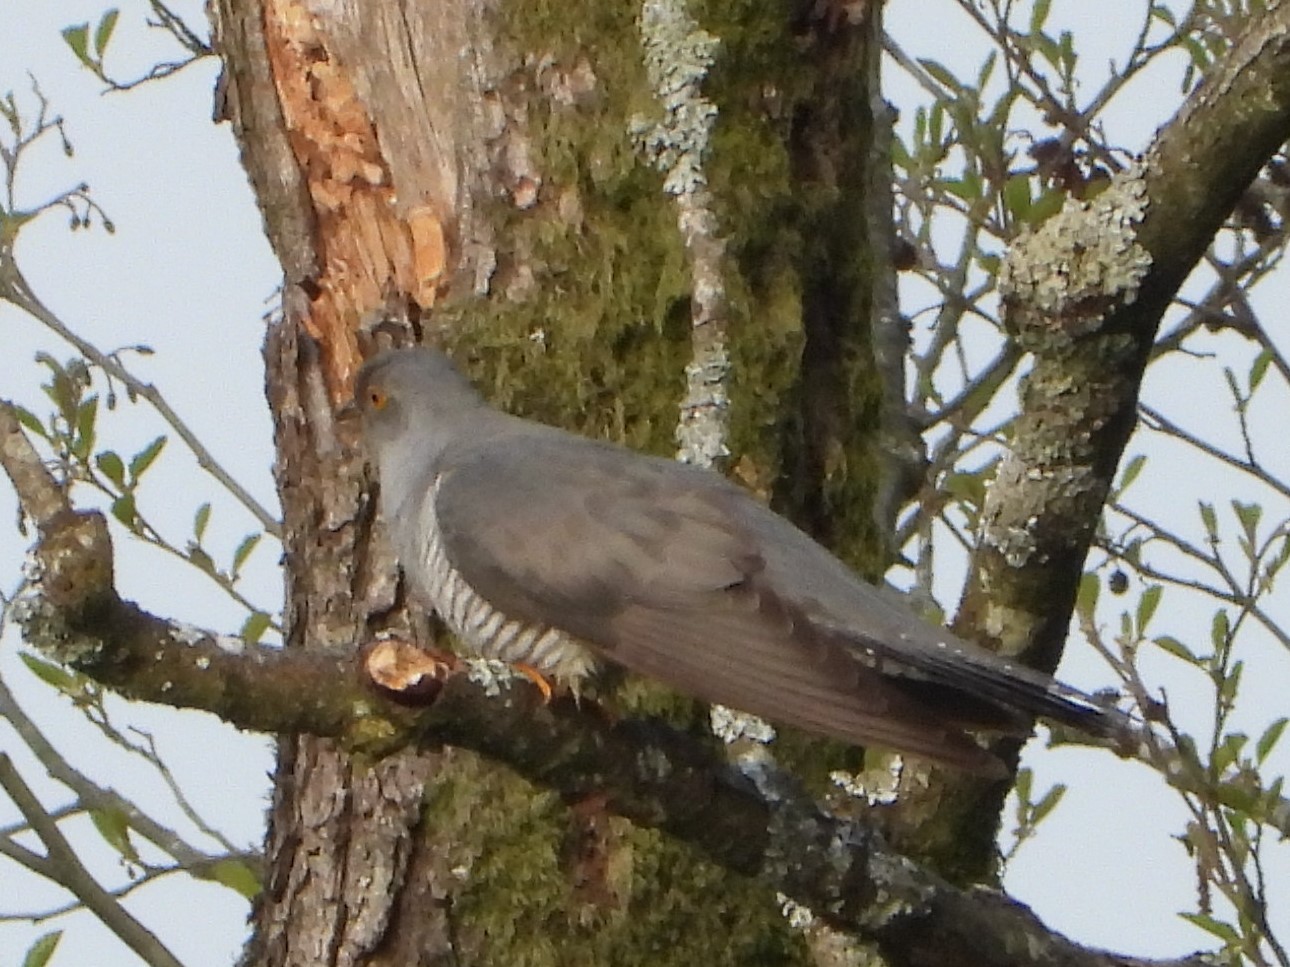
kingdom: Animalia
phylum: Chordata
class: Aves
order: Cuculiformes
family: Cuculidae
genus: Cuculus
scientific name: Cuculus canorus
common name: Common cuckoo
